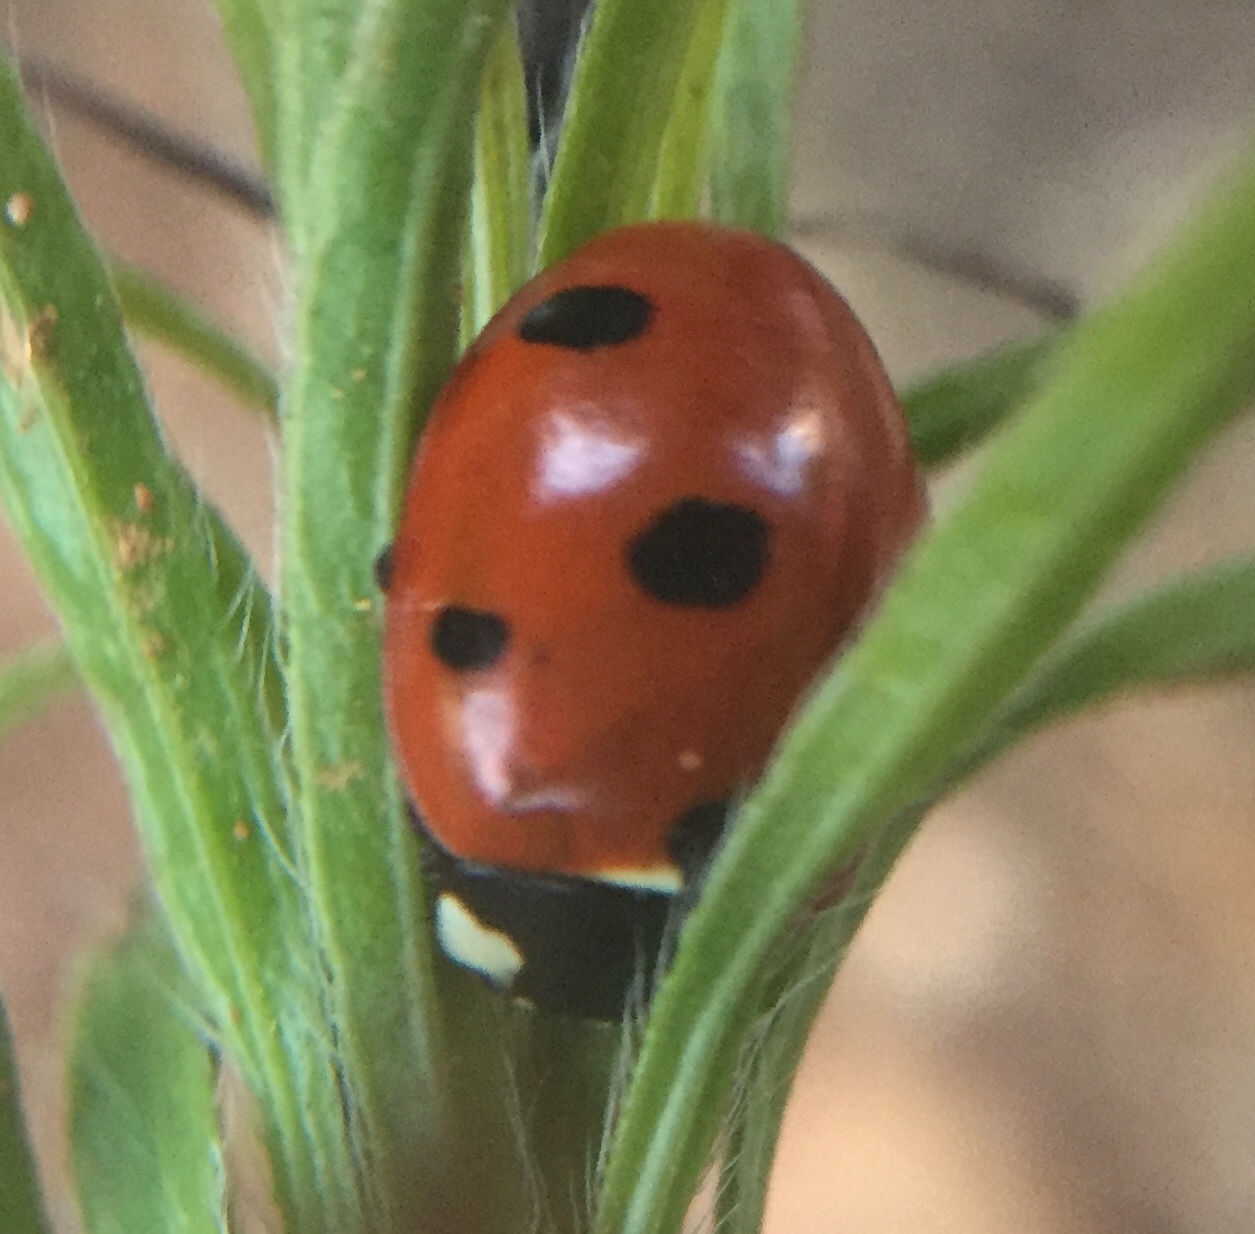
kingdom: Animalia
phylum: Arthropoda
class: Insecta
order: Coleoptera
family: Coccinellidae
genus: Coccinella
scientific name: Coccinella septempunctata
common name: Sevenspotted lady beetle
